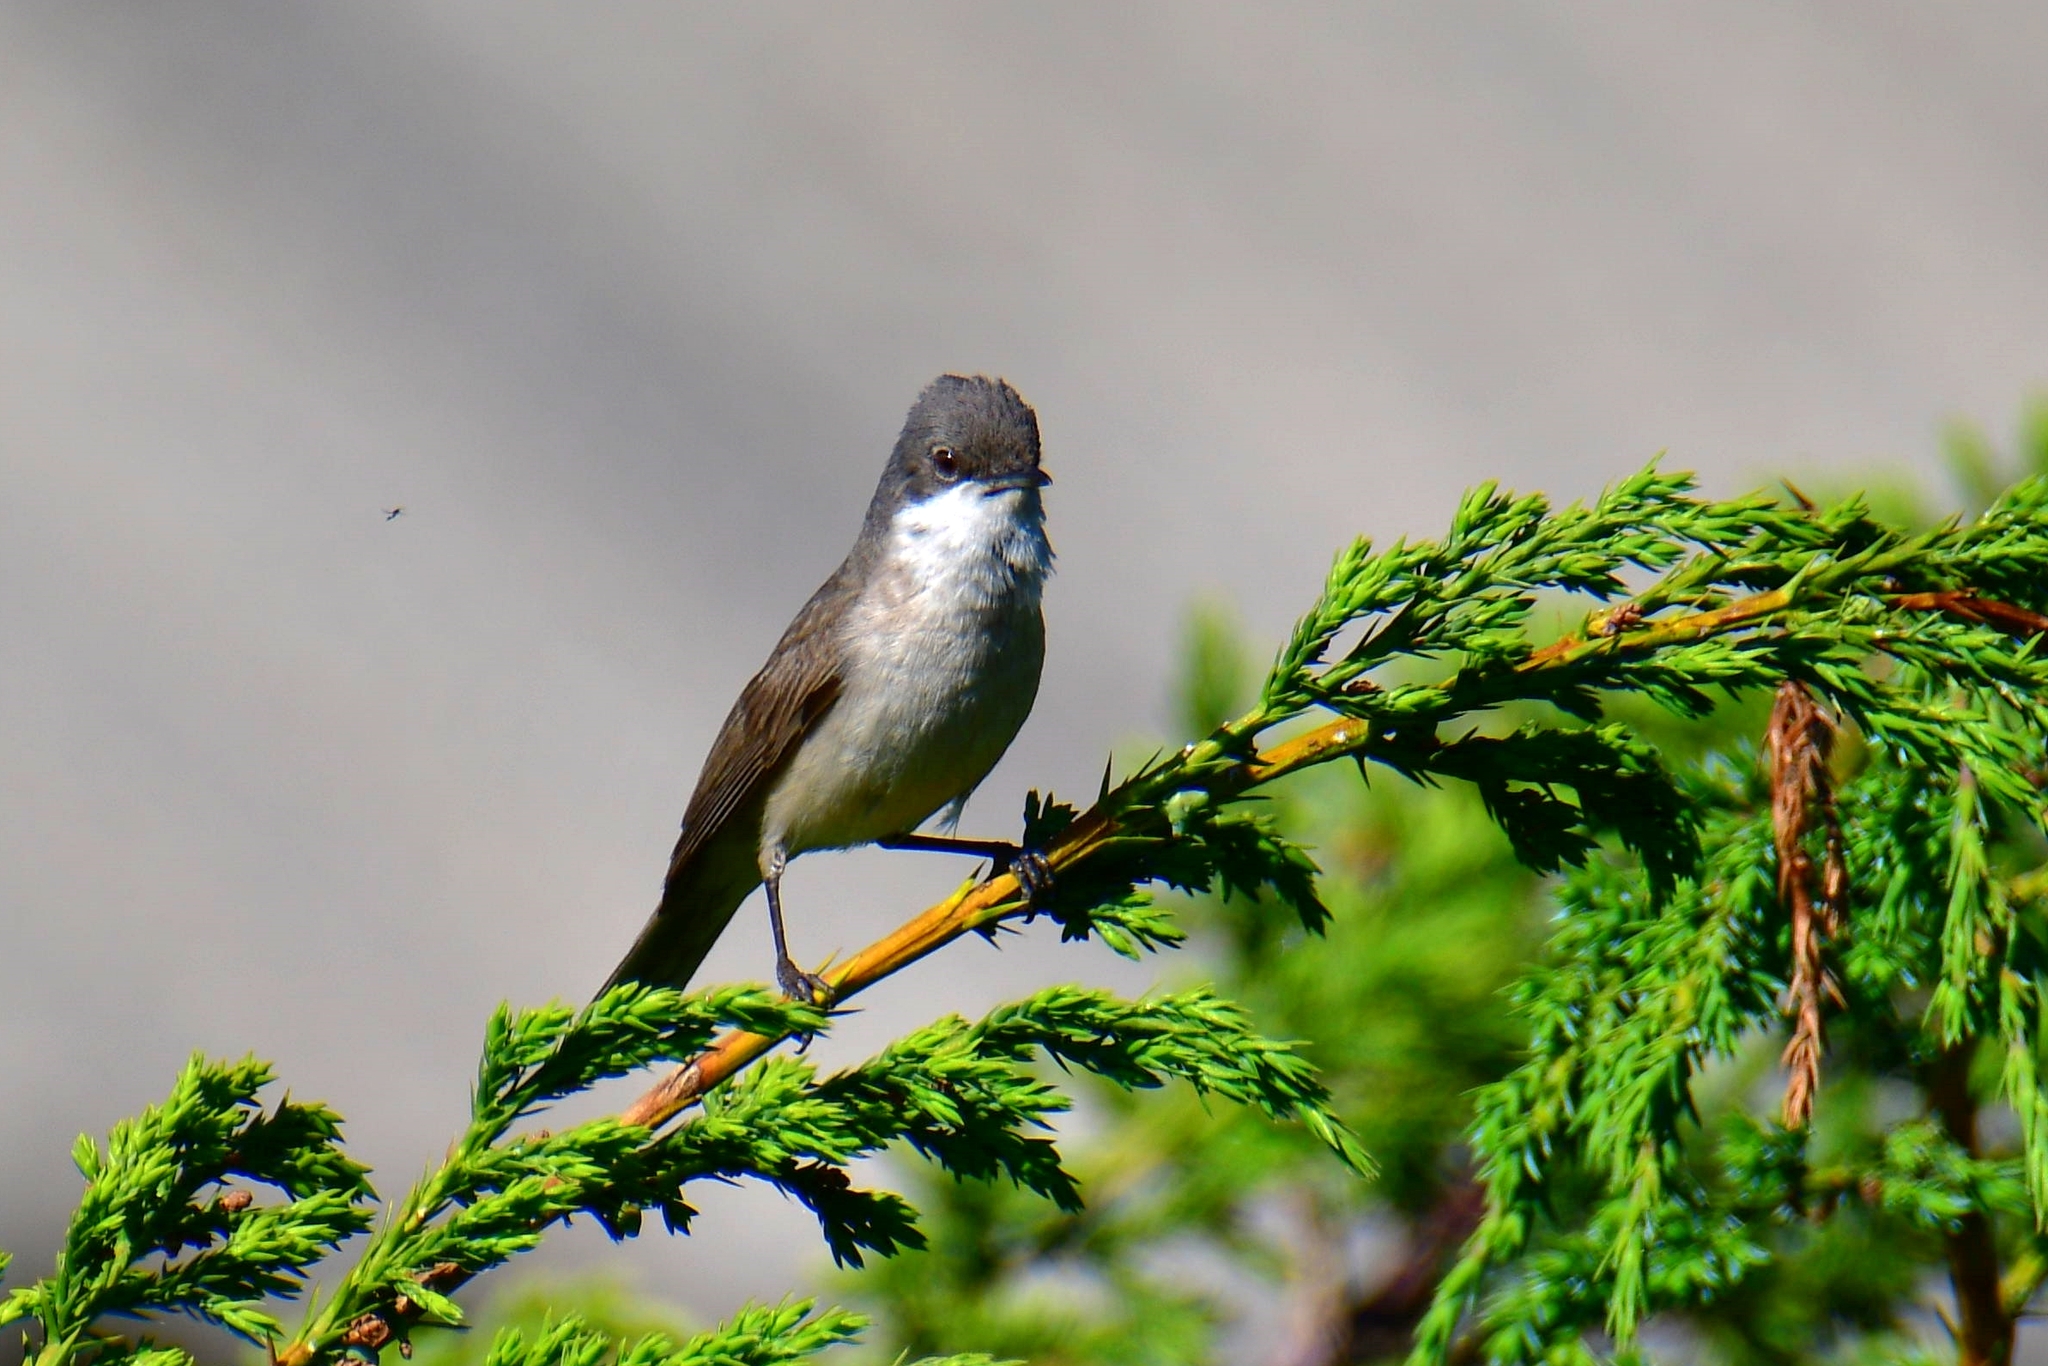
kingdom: Animalia
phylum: Chordata
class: Aves
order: Passeriformes
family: Sylviidae
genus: Sylvia
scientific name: Sylvia curruca
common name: Lesser whitethroat
